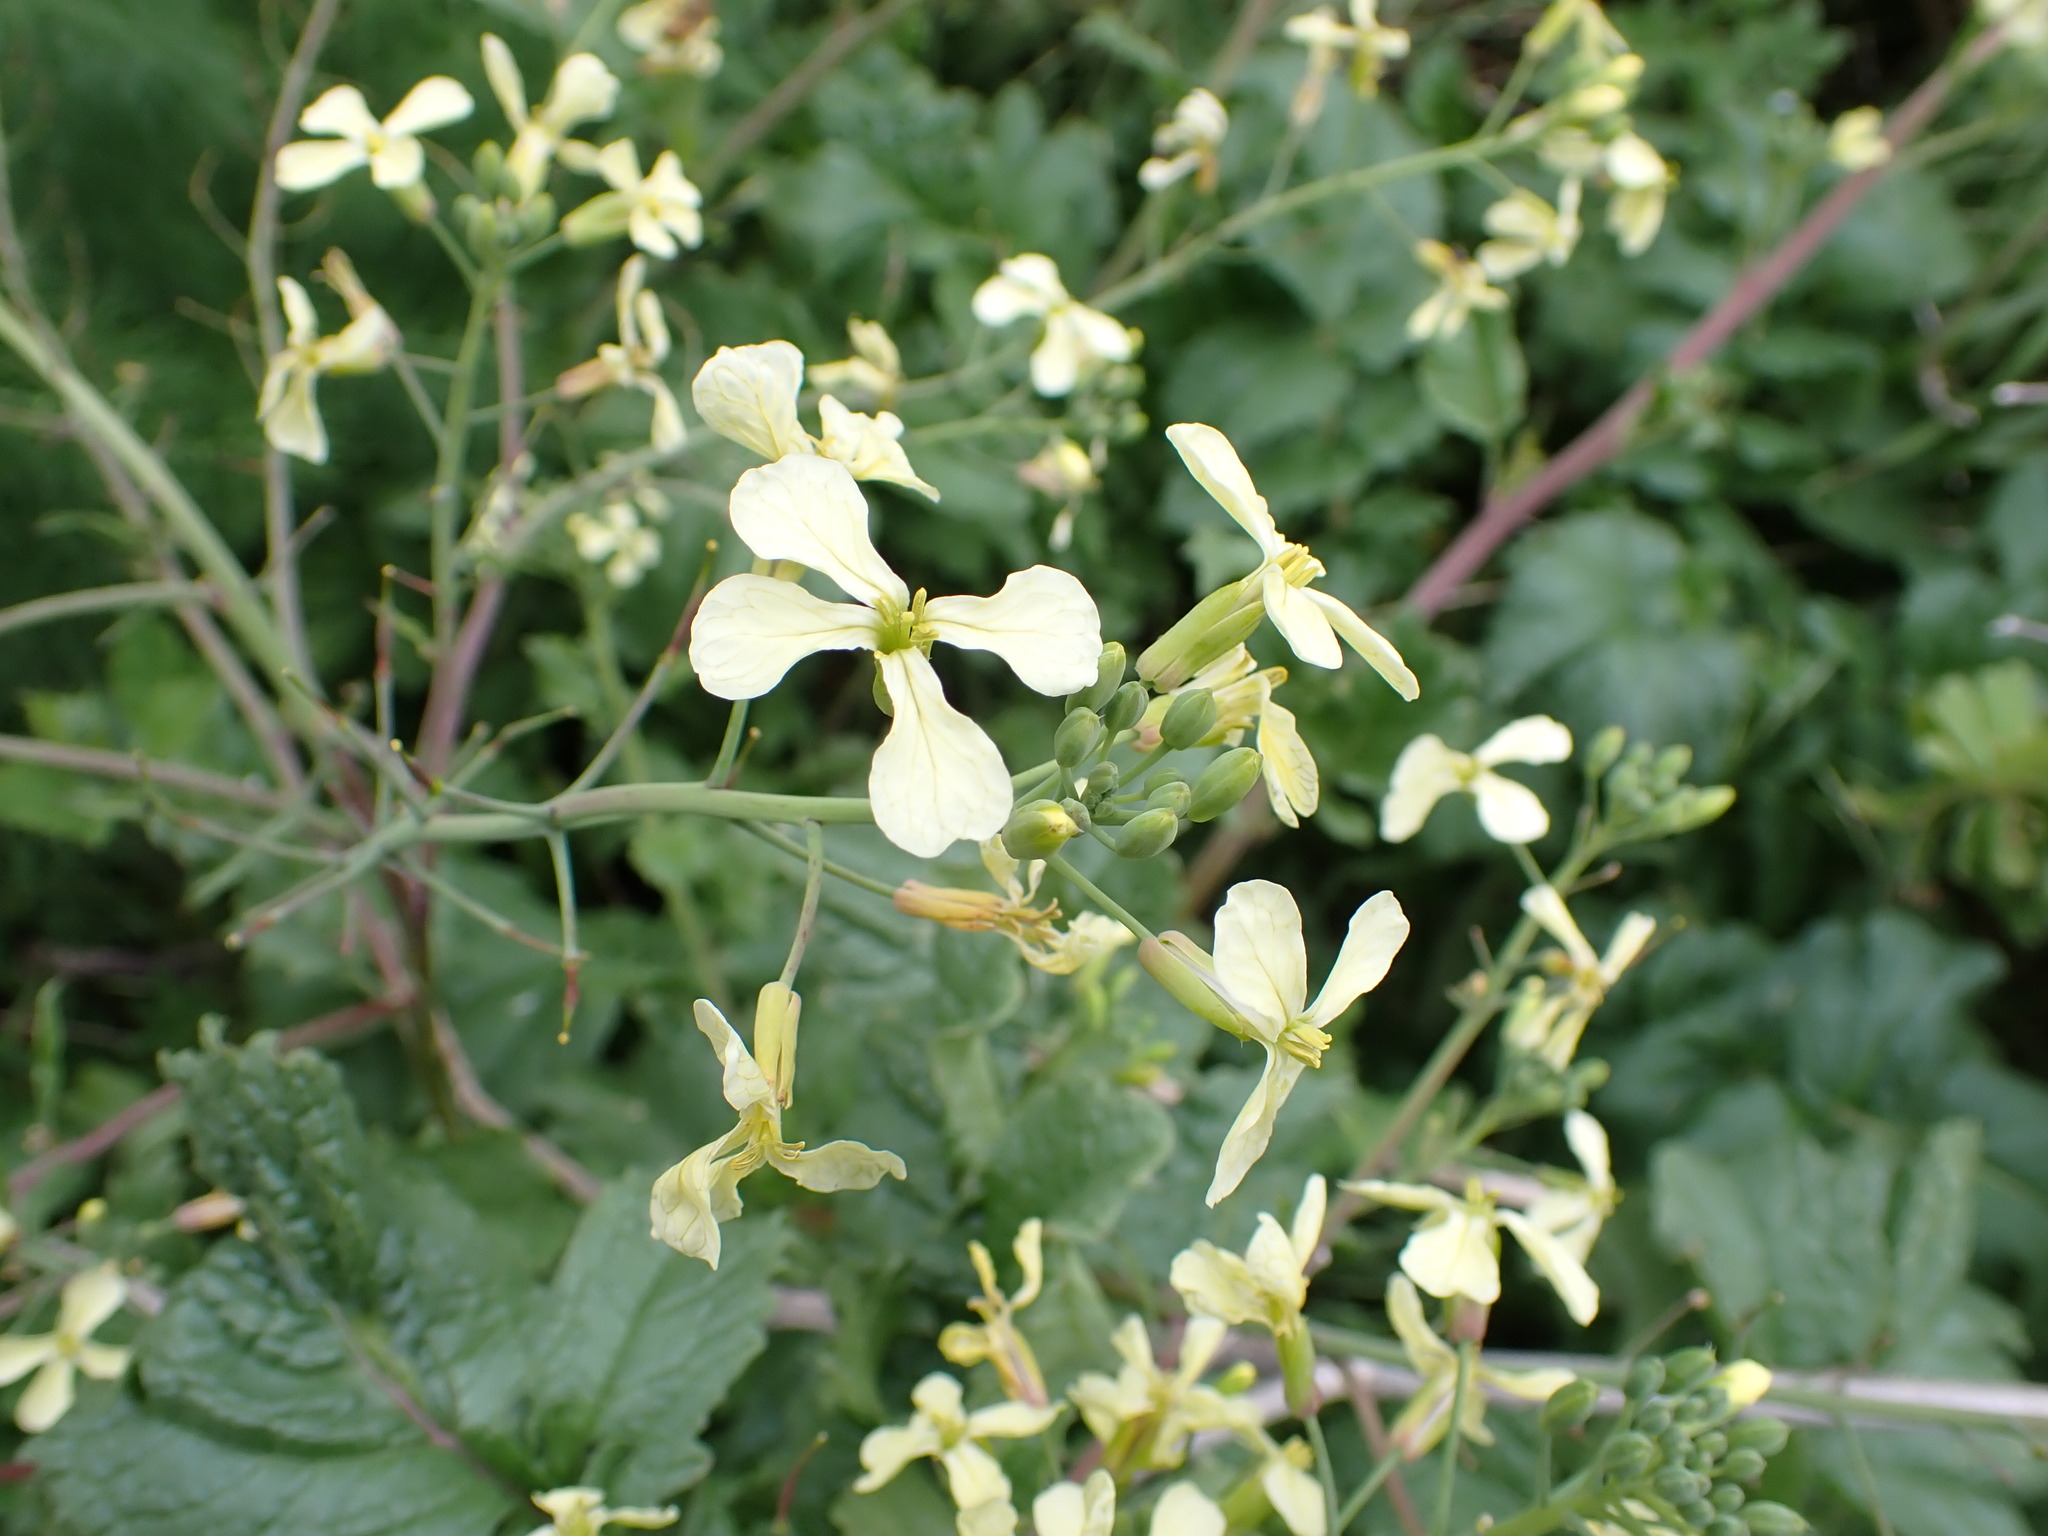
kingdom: Plantae
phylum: Tracheophyta
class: Magnoliopsida
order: Brassicales
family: Brassicaceae
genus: Raphanus
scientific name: Raphanus raphanistrum
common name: Wild radish
